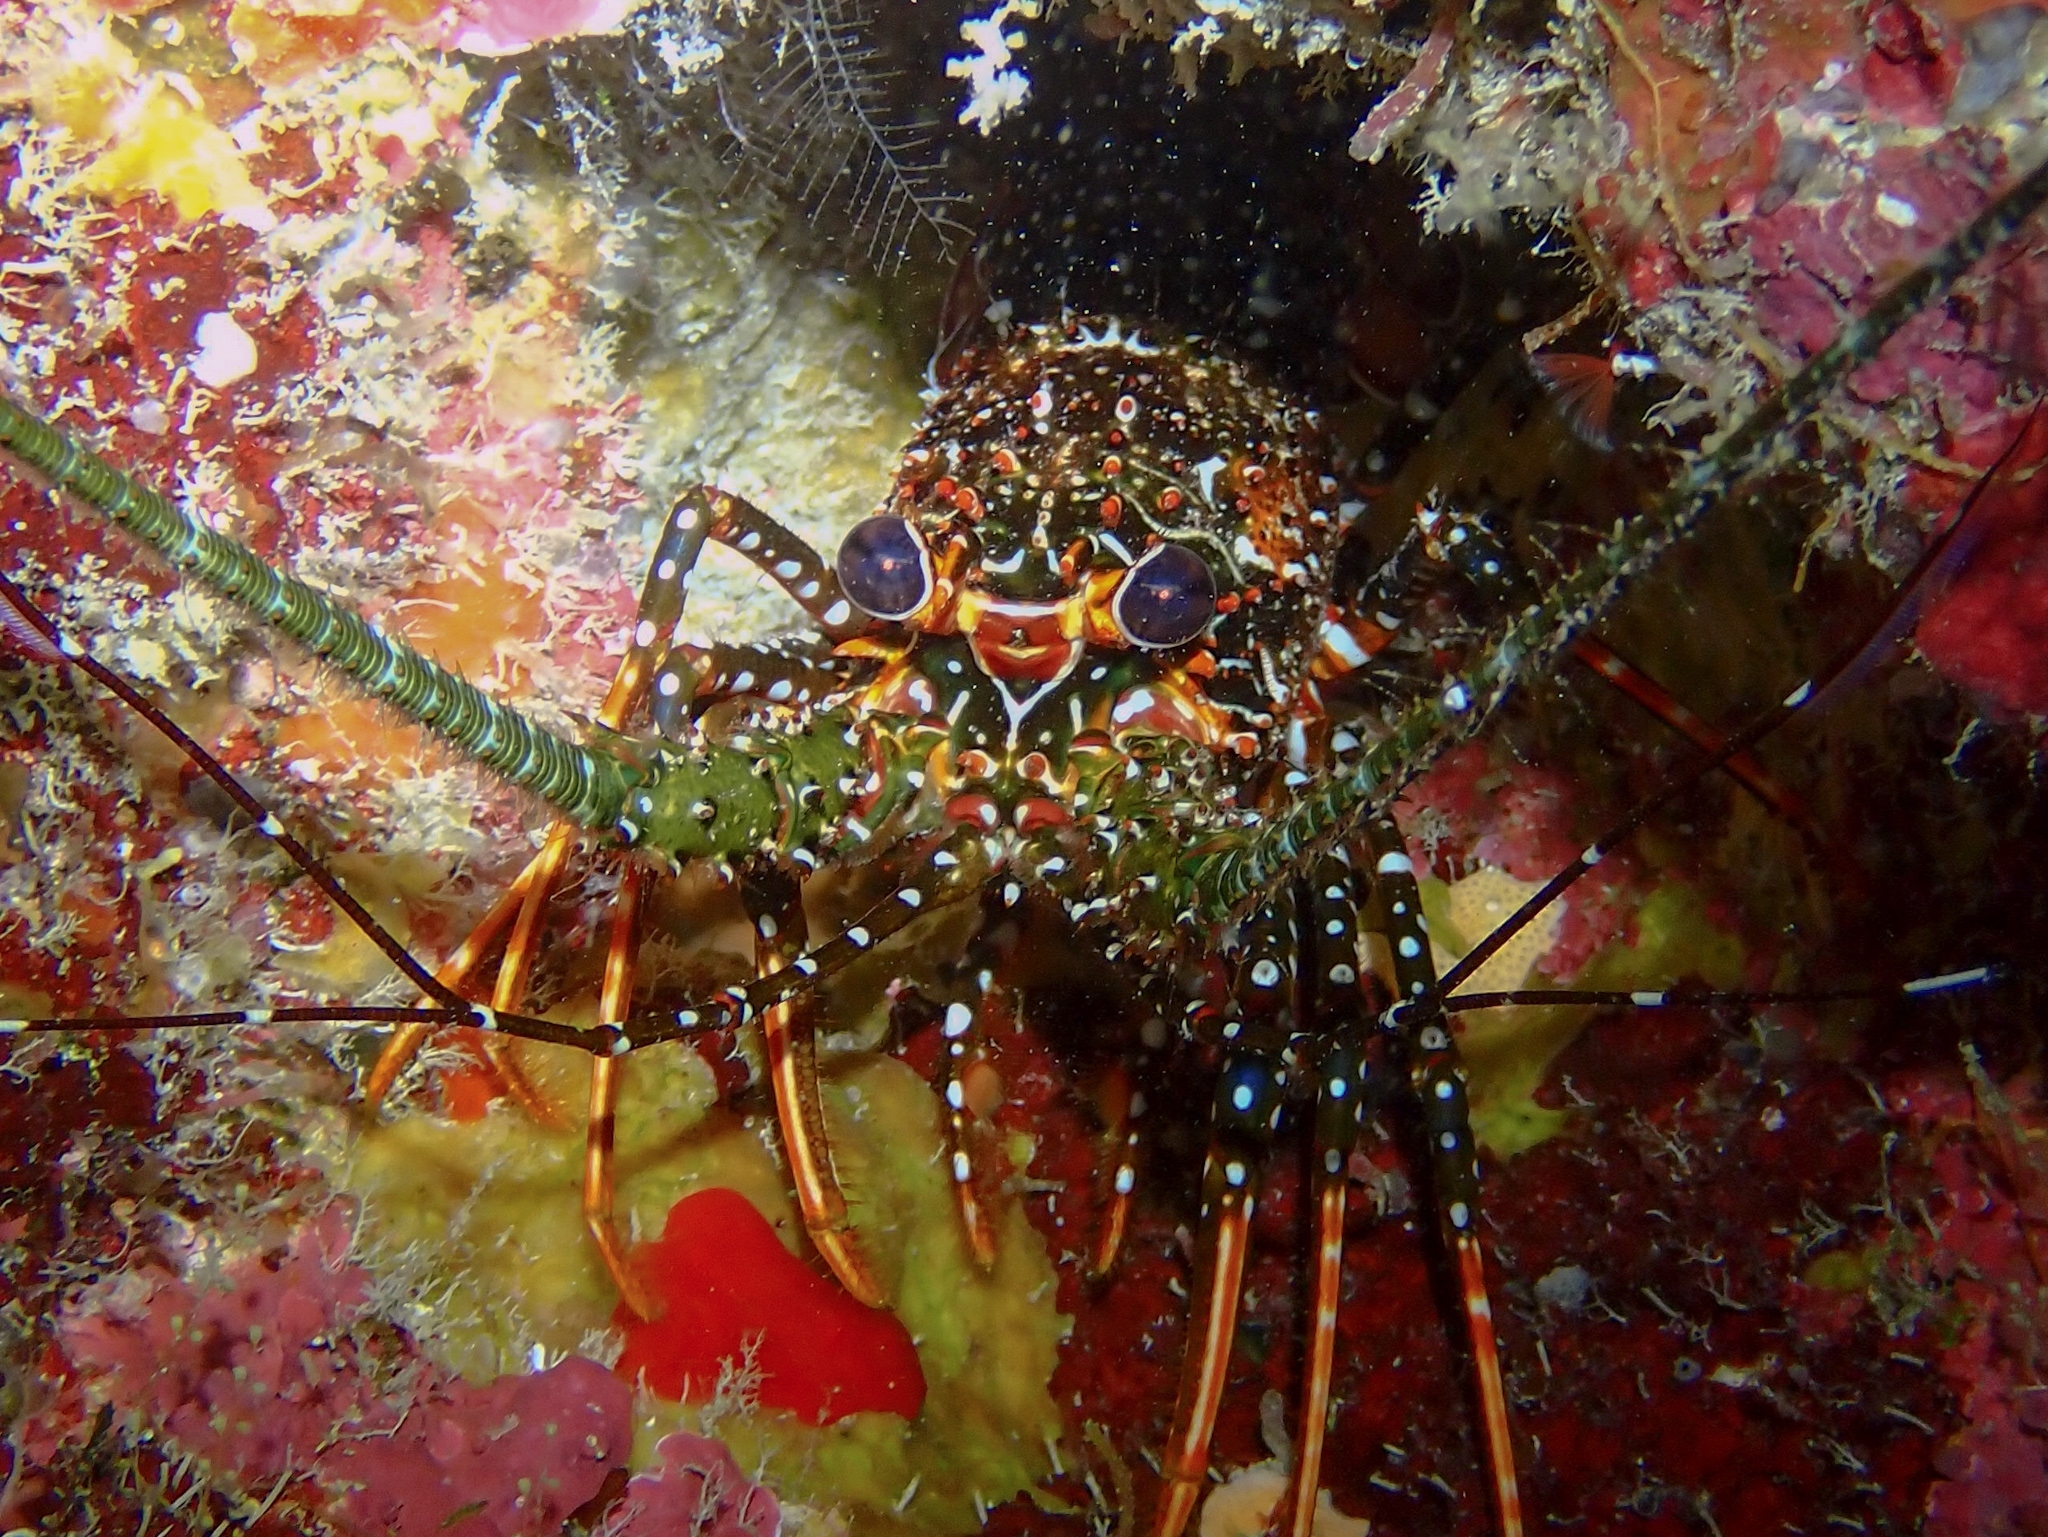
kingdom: Animalia
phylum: Arthropoda
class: Malacostraca
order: Decapoda
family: Palinuridae
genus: Panulirus
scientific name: Panulirus guttatus
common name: Spotted spiny lobster
